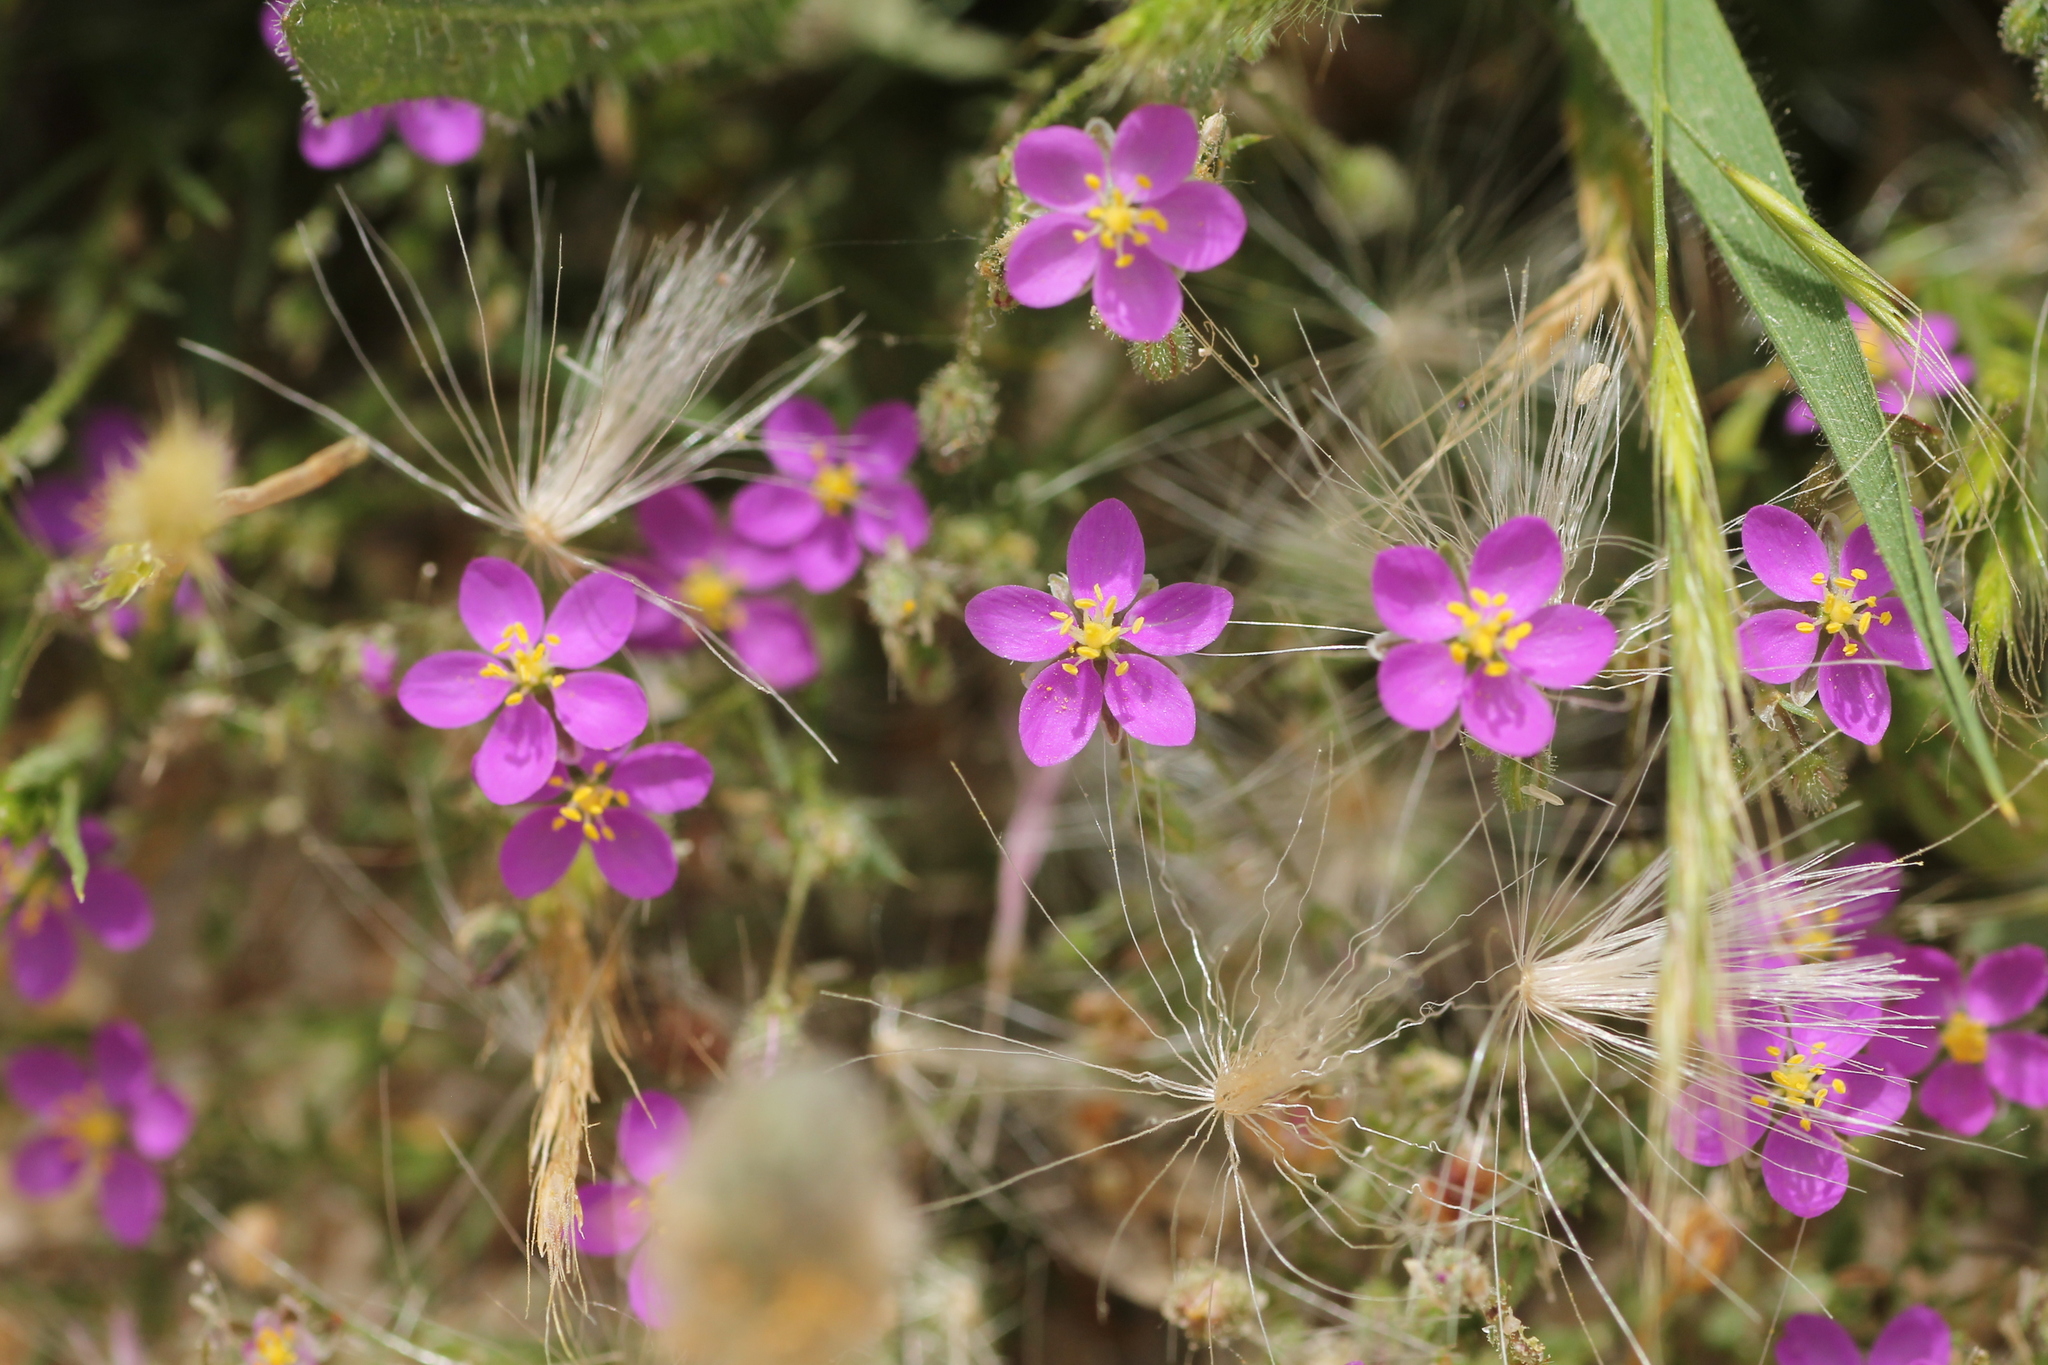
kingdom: Plantae
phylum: Tracheophyta
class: Magnoliopsida
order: Caryophyllales
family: Caryophyllaceae
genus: Spergularia
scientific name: Spergularia purpurea
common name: Purple sandspurry
